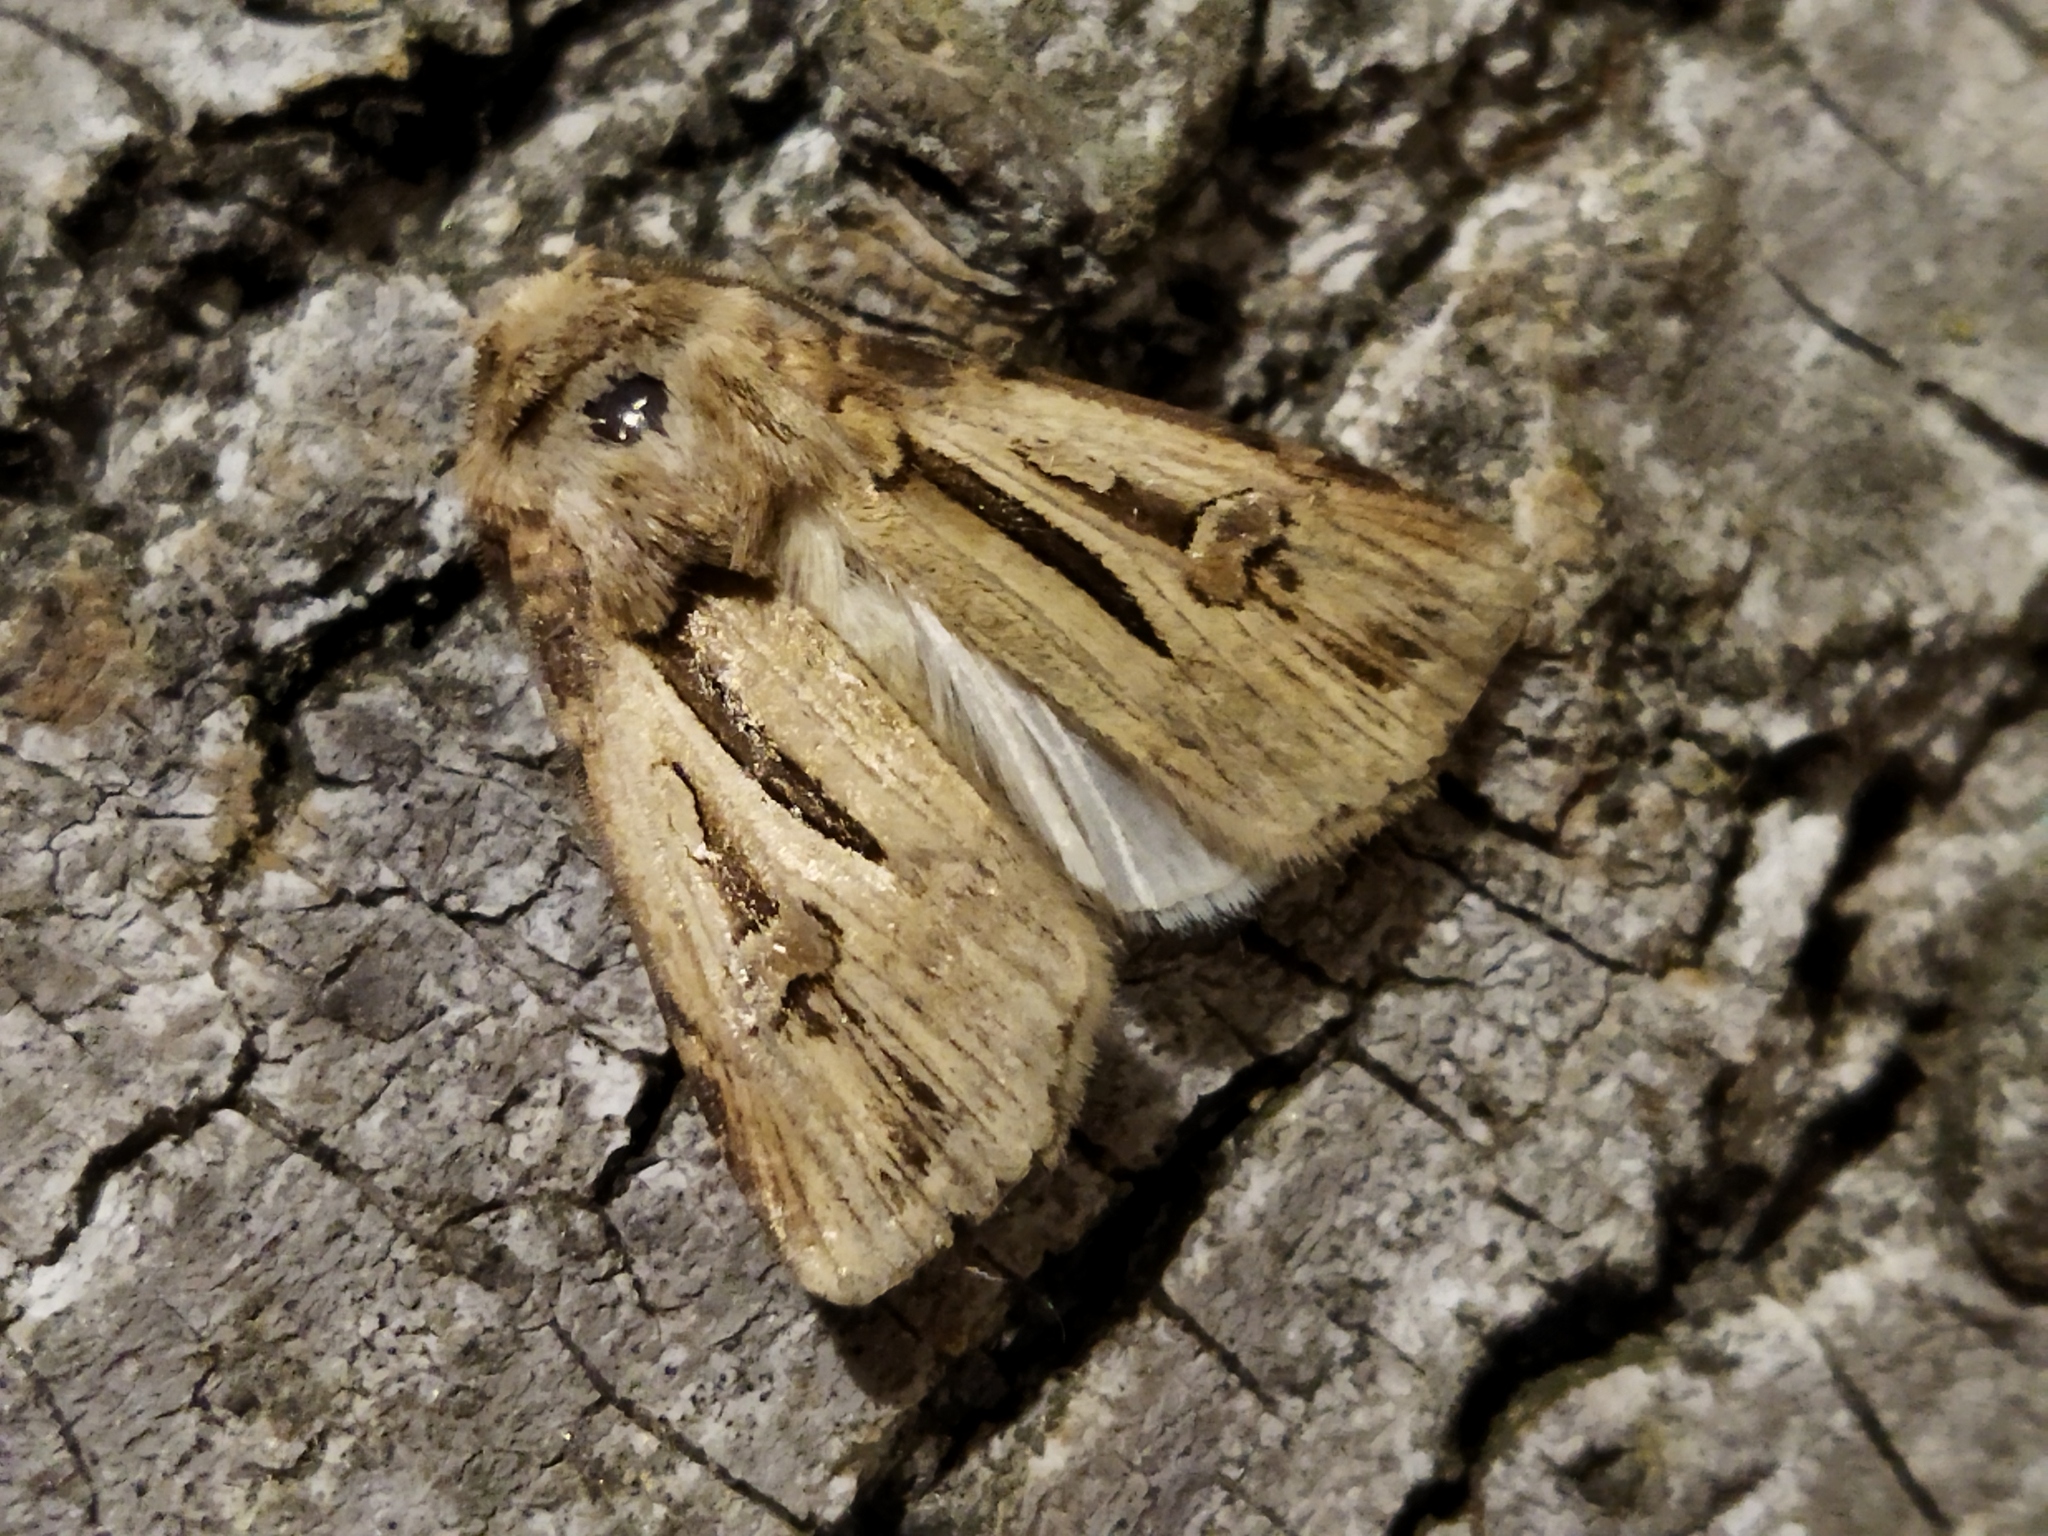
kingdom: Animalia
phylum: Arthropoda
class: Insecta
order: Lepidoptera
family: Noctuidae
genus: Agrotis
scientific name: Agrotis
